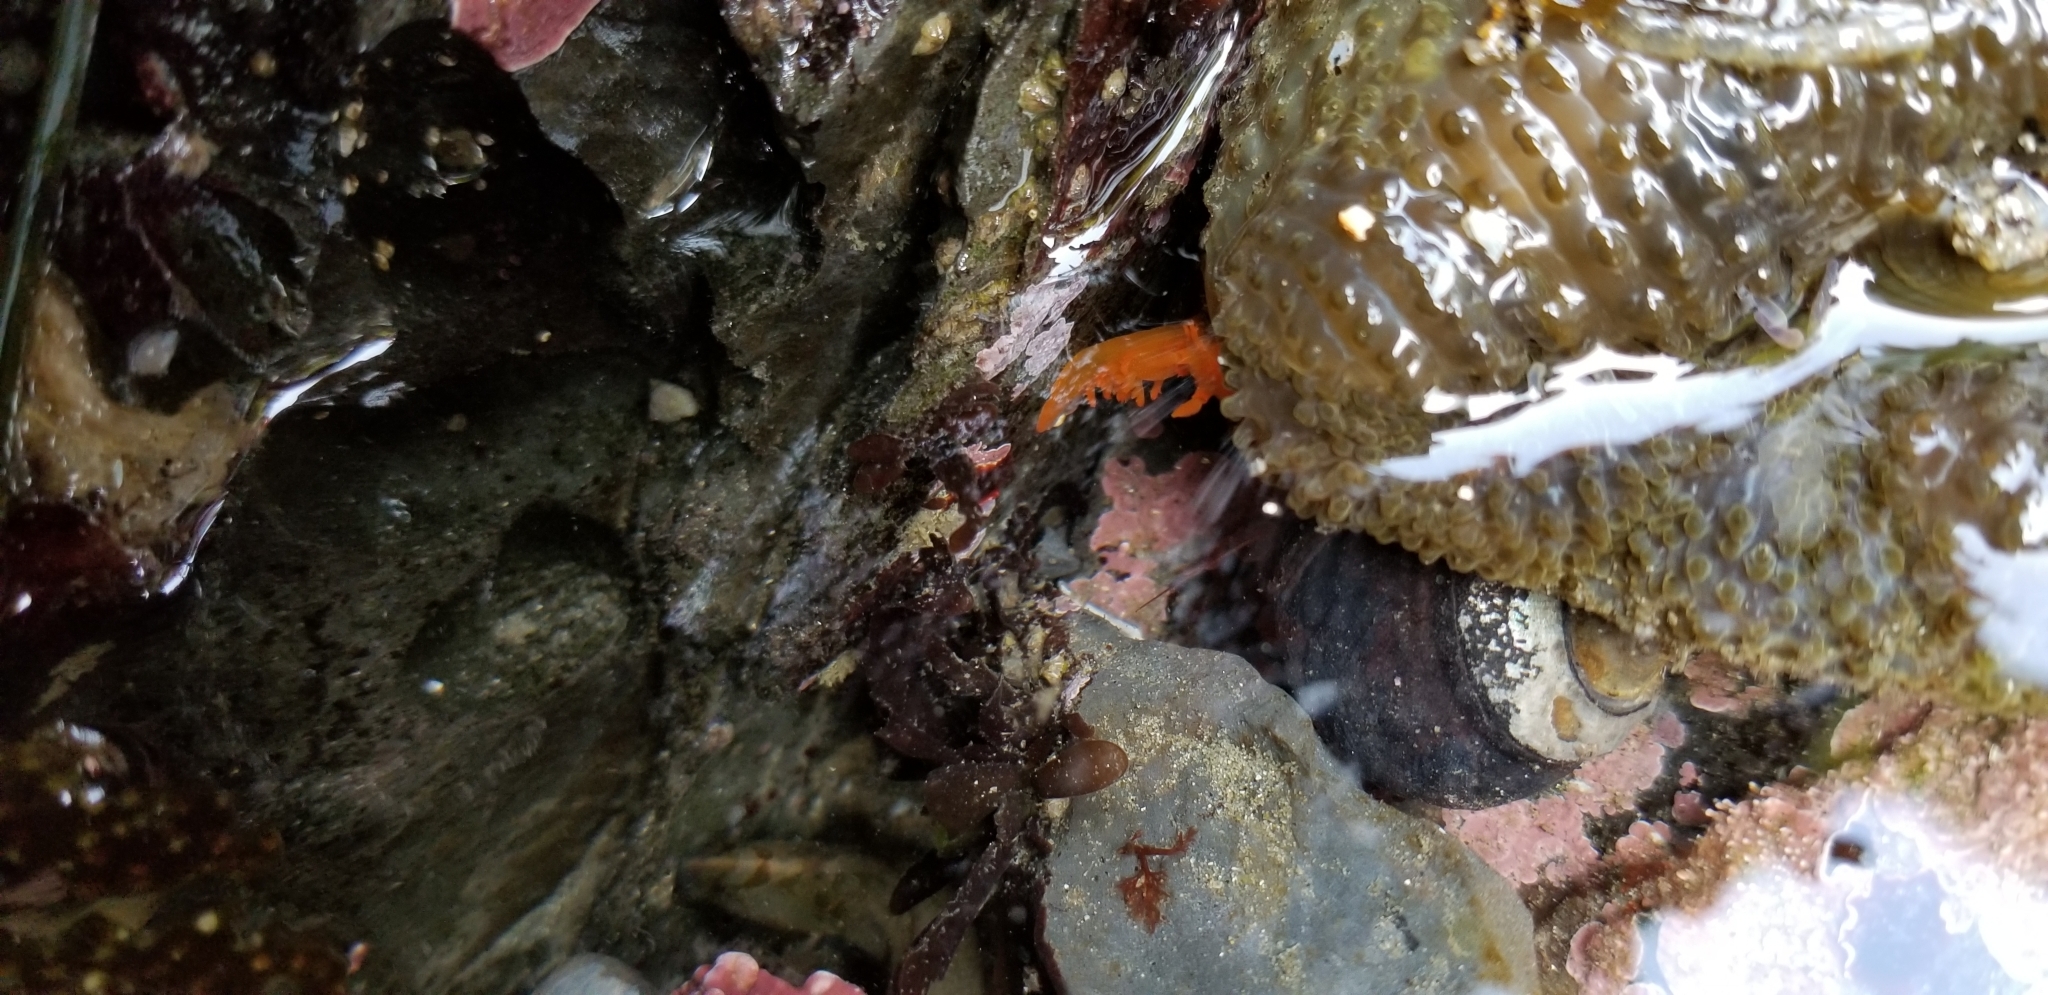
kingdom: Animalia
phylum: Mollusca
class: Gastropoda
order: Nudibranchia
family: Polyceridae
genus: Triopha
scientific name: Triopha maculata
